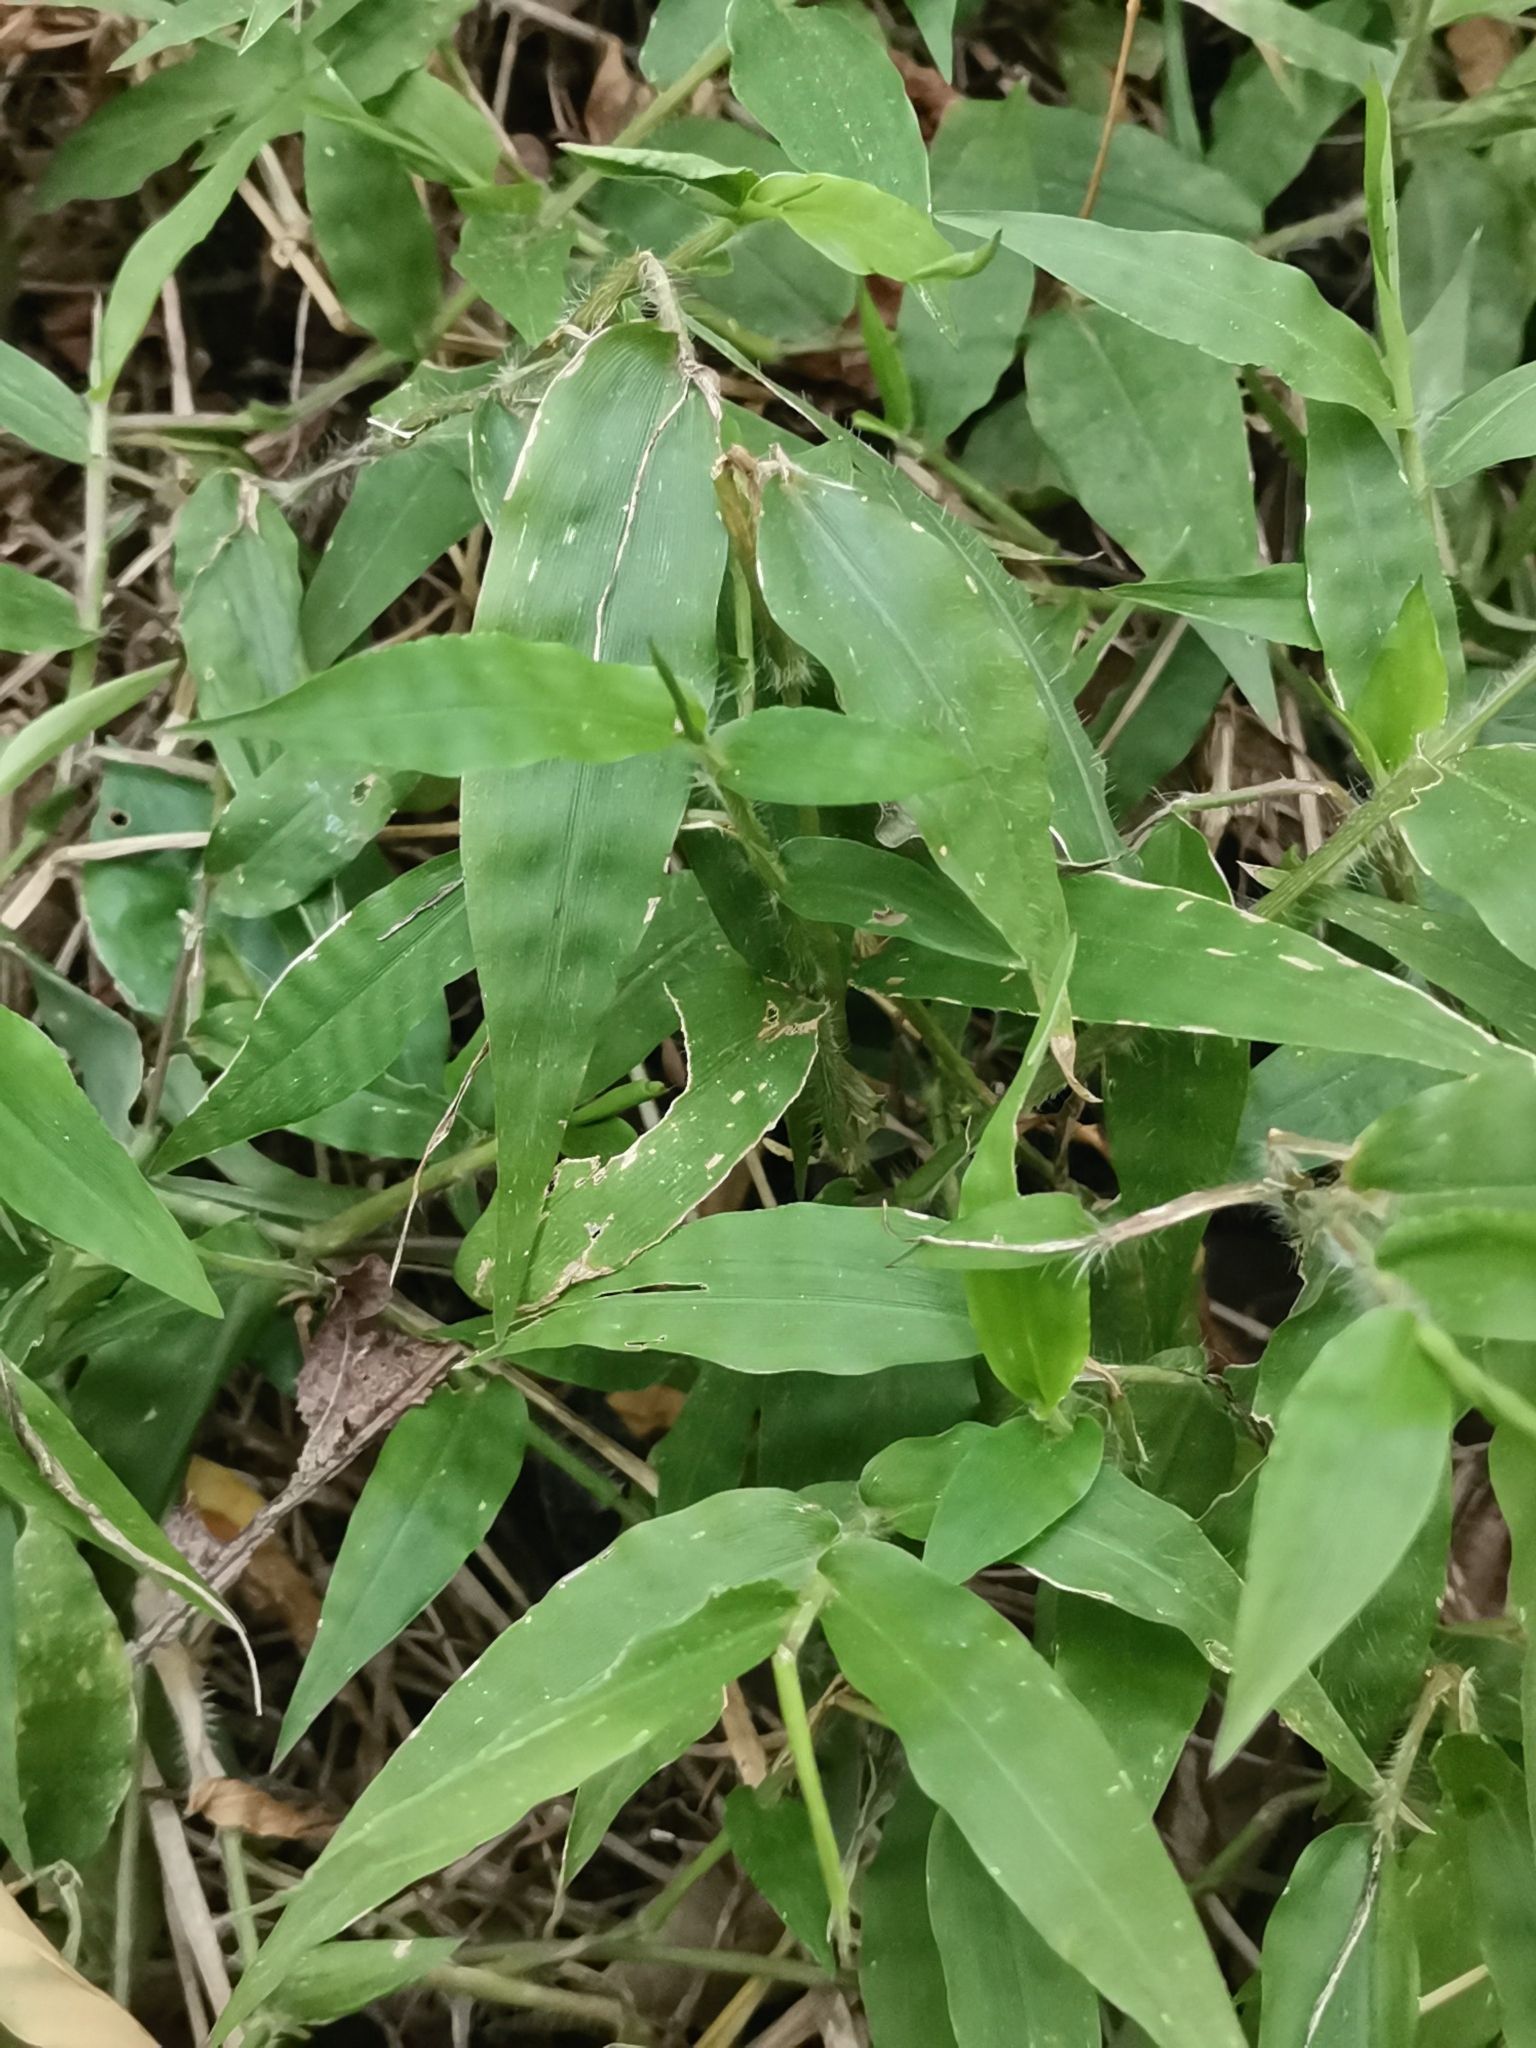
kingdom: Plantae
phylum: Tracheophyta
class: Liliopsida
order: Poales
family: Poaceae
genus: Oplismenus
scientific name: Oplismenus undulatifolius
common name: Wavyleaf basketgrass
